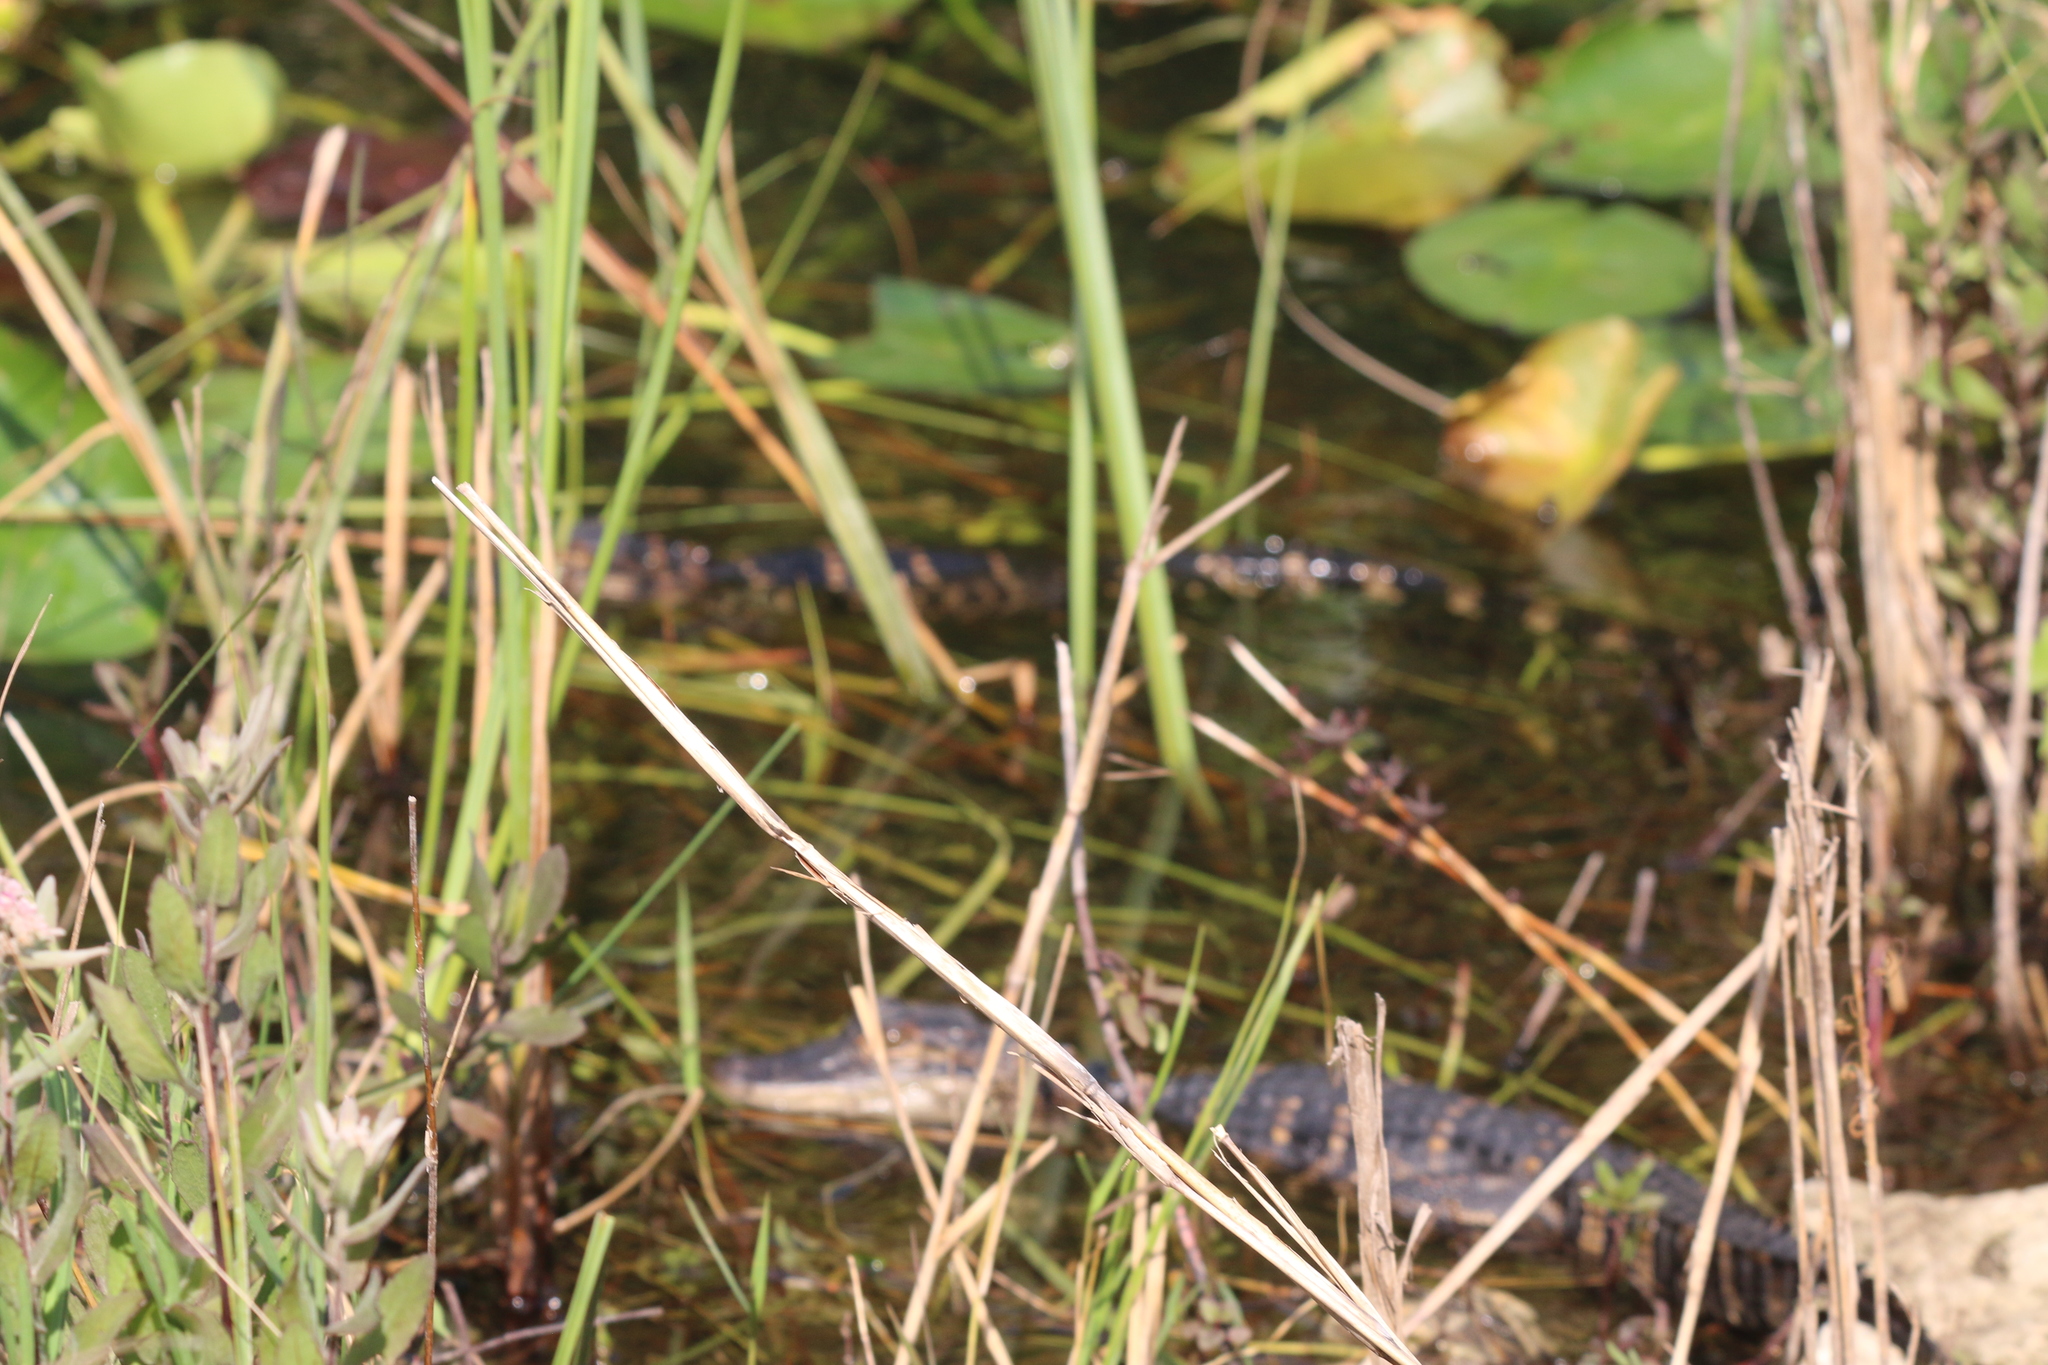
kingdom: Animalia
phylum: Chordata
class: Crocodylia
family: Alligatoridae
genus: Alligator
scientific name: Alligator mississippiensis
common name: American alligator
